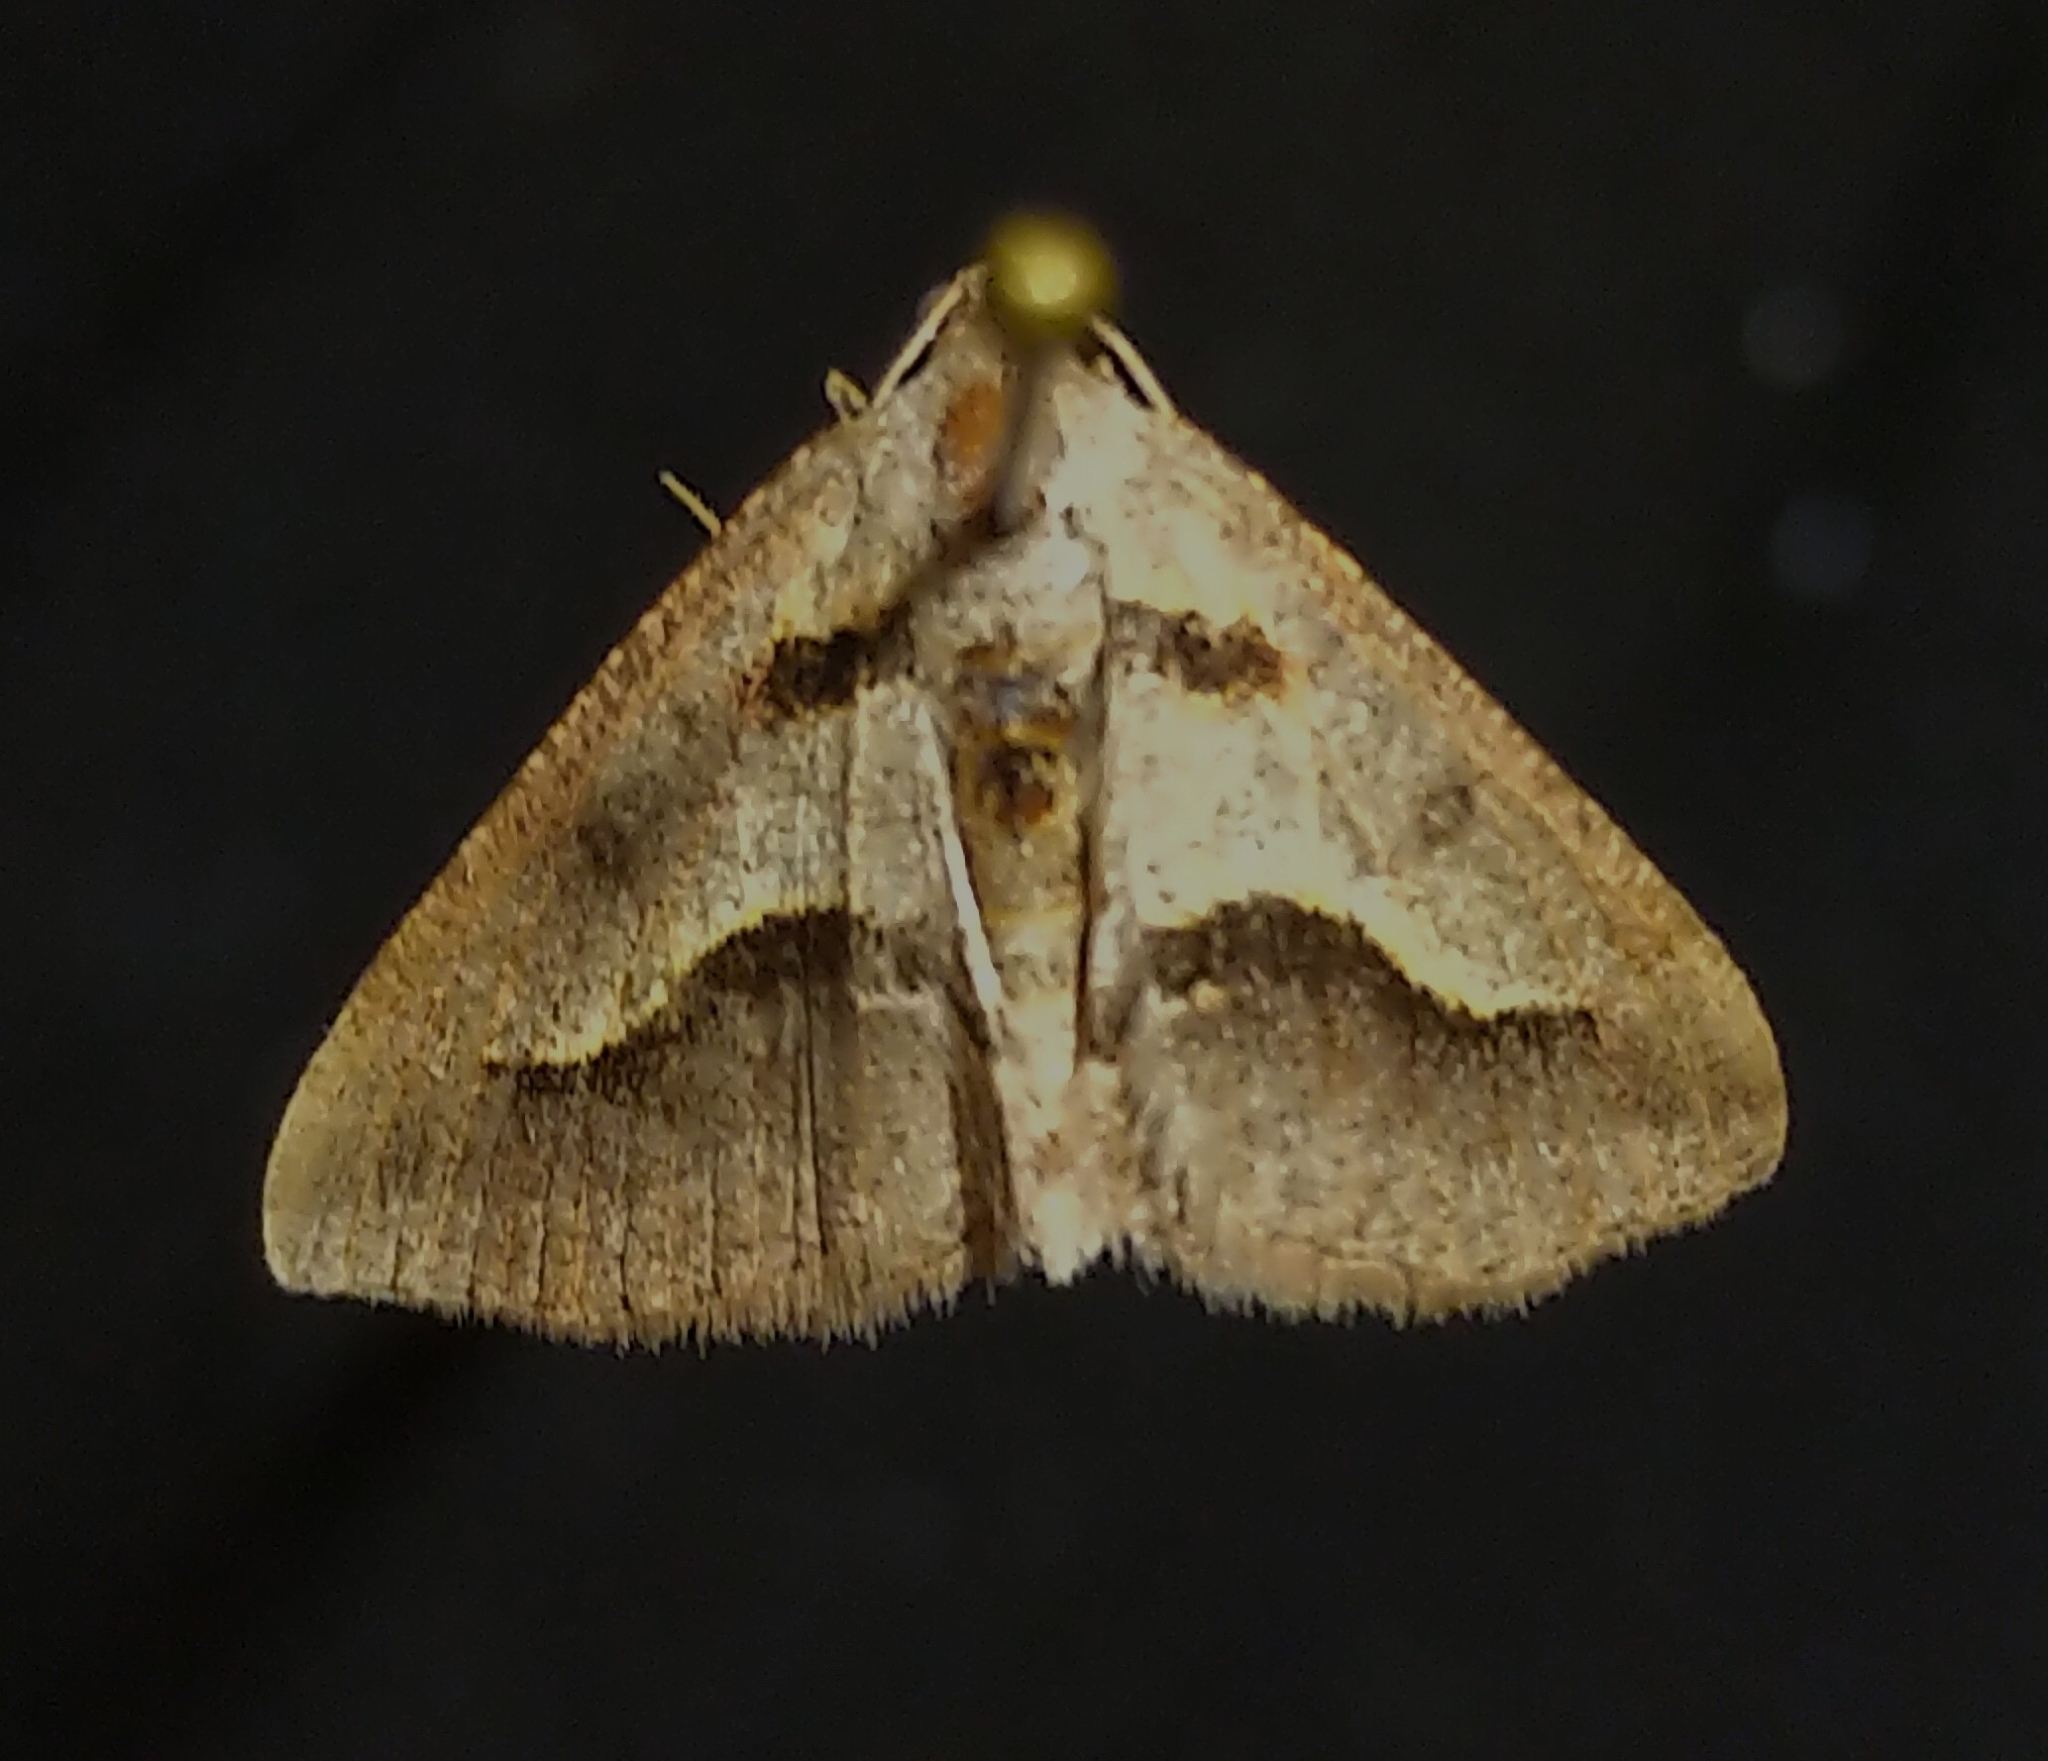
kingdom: Animalia
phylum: Arthropoda
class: Insecta
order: Lepidoptera
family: Geometridae
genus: Digrammia
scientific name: Digrammia subminiata
